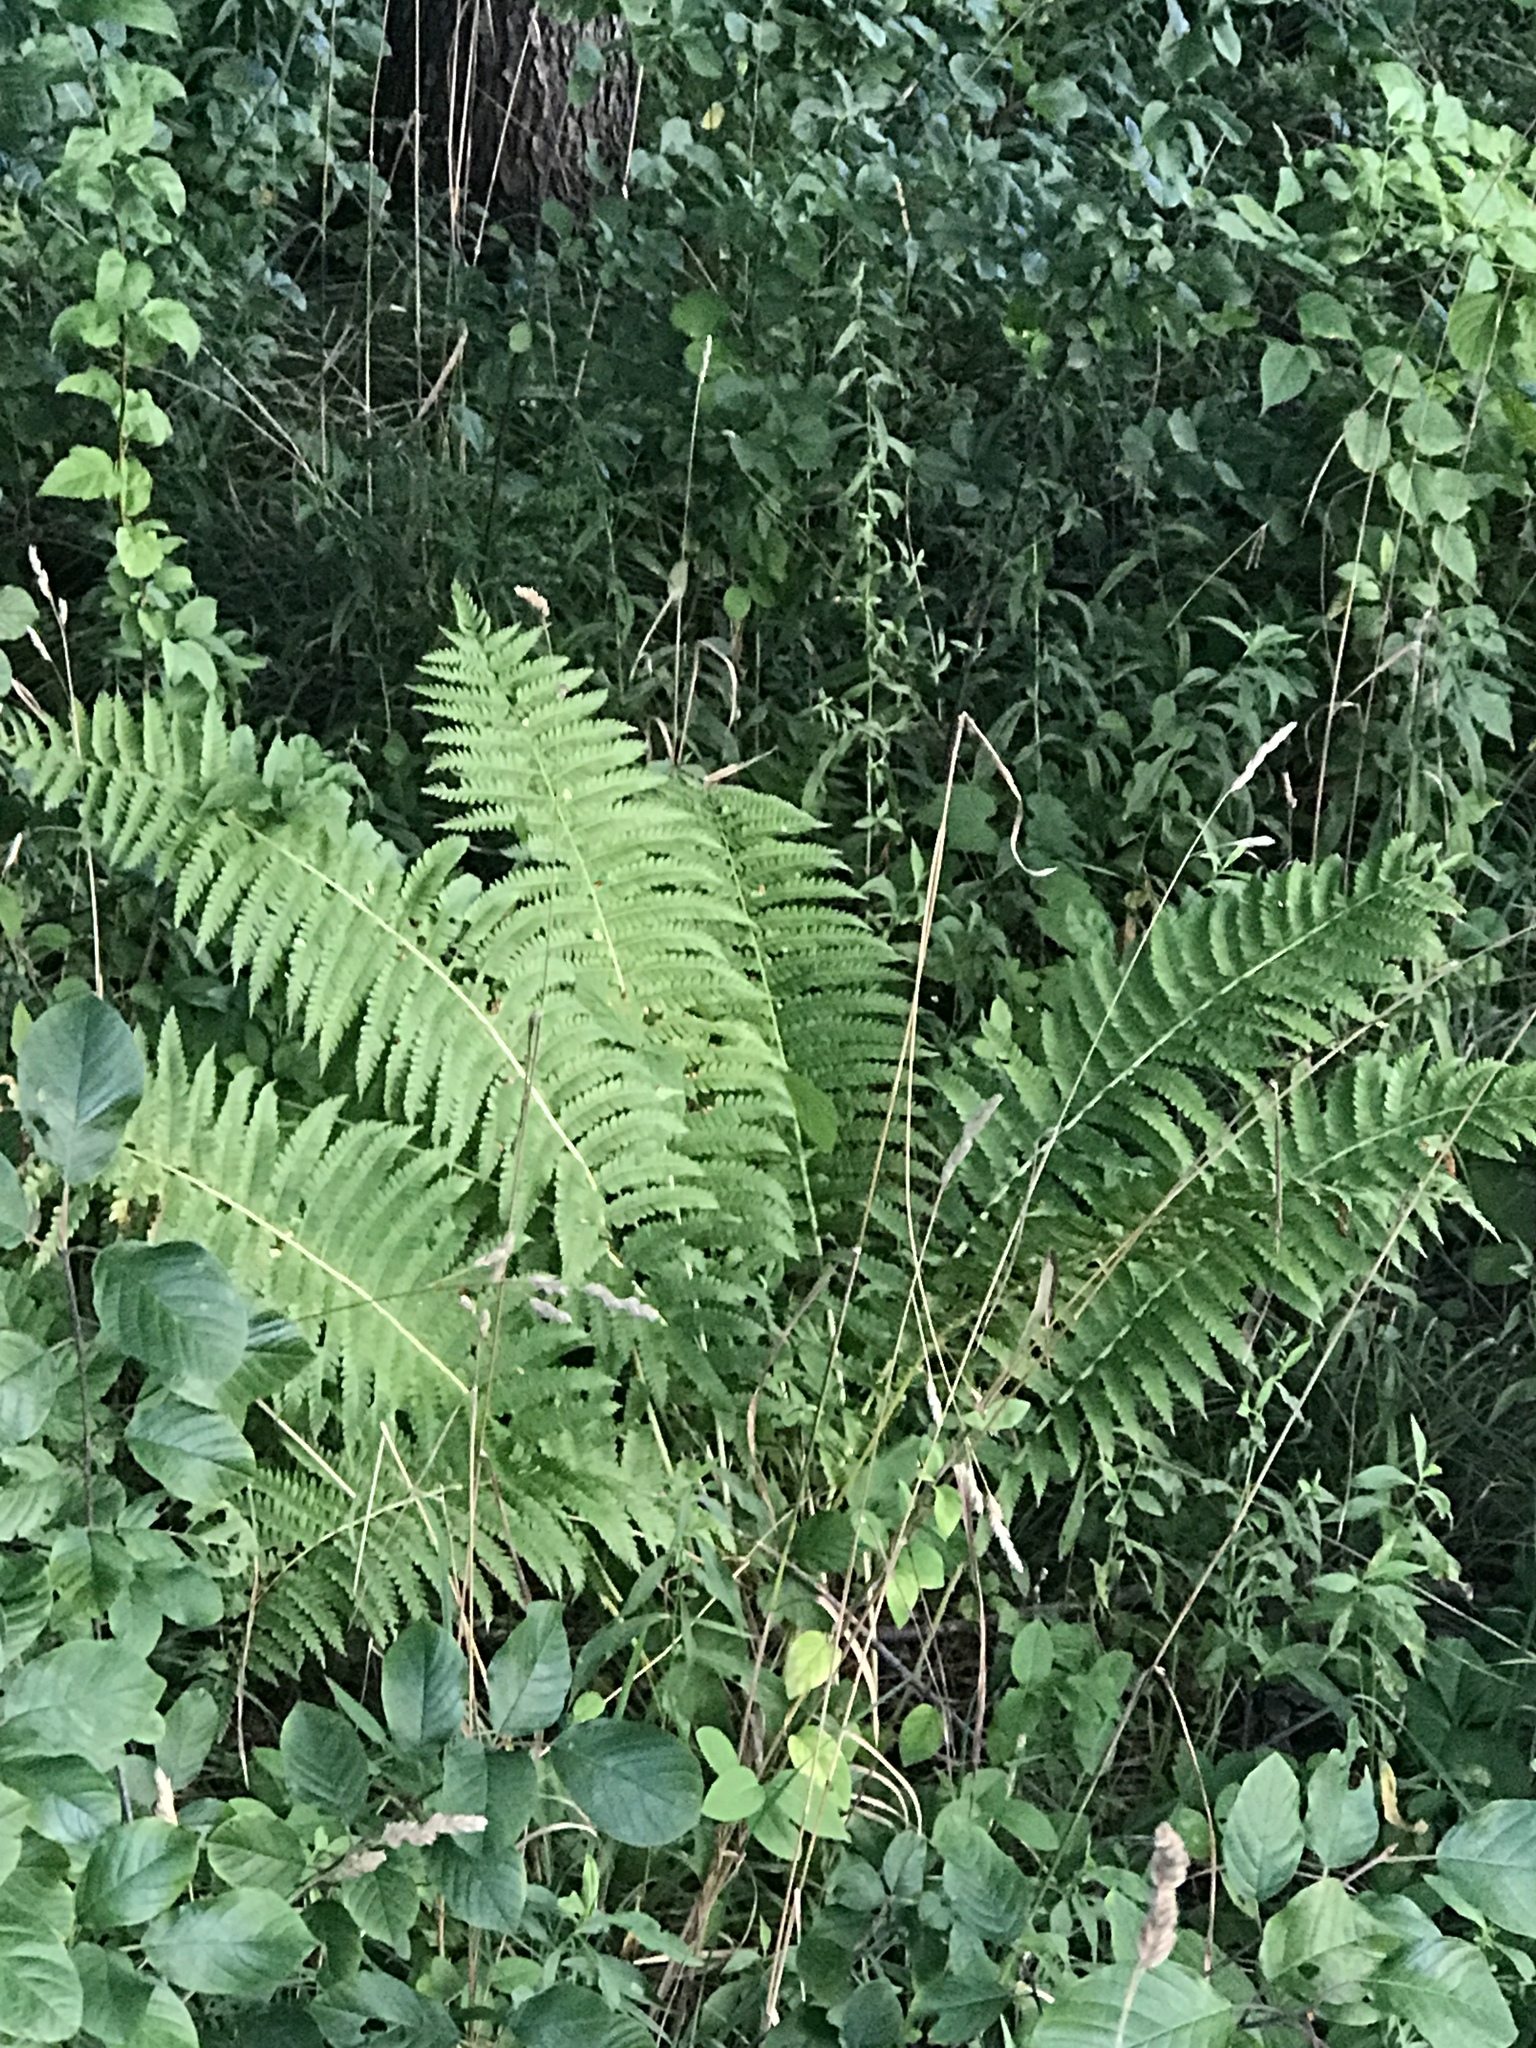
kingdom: Plantae
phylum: Tracheophyta
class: Polypodiopsida
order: Polypodiales
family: Onocleaceae
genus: Matteuccia
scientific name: Matteuccia struthiopteris
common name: Ostrich fern
